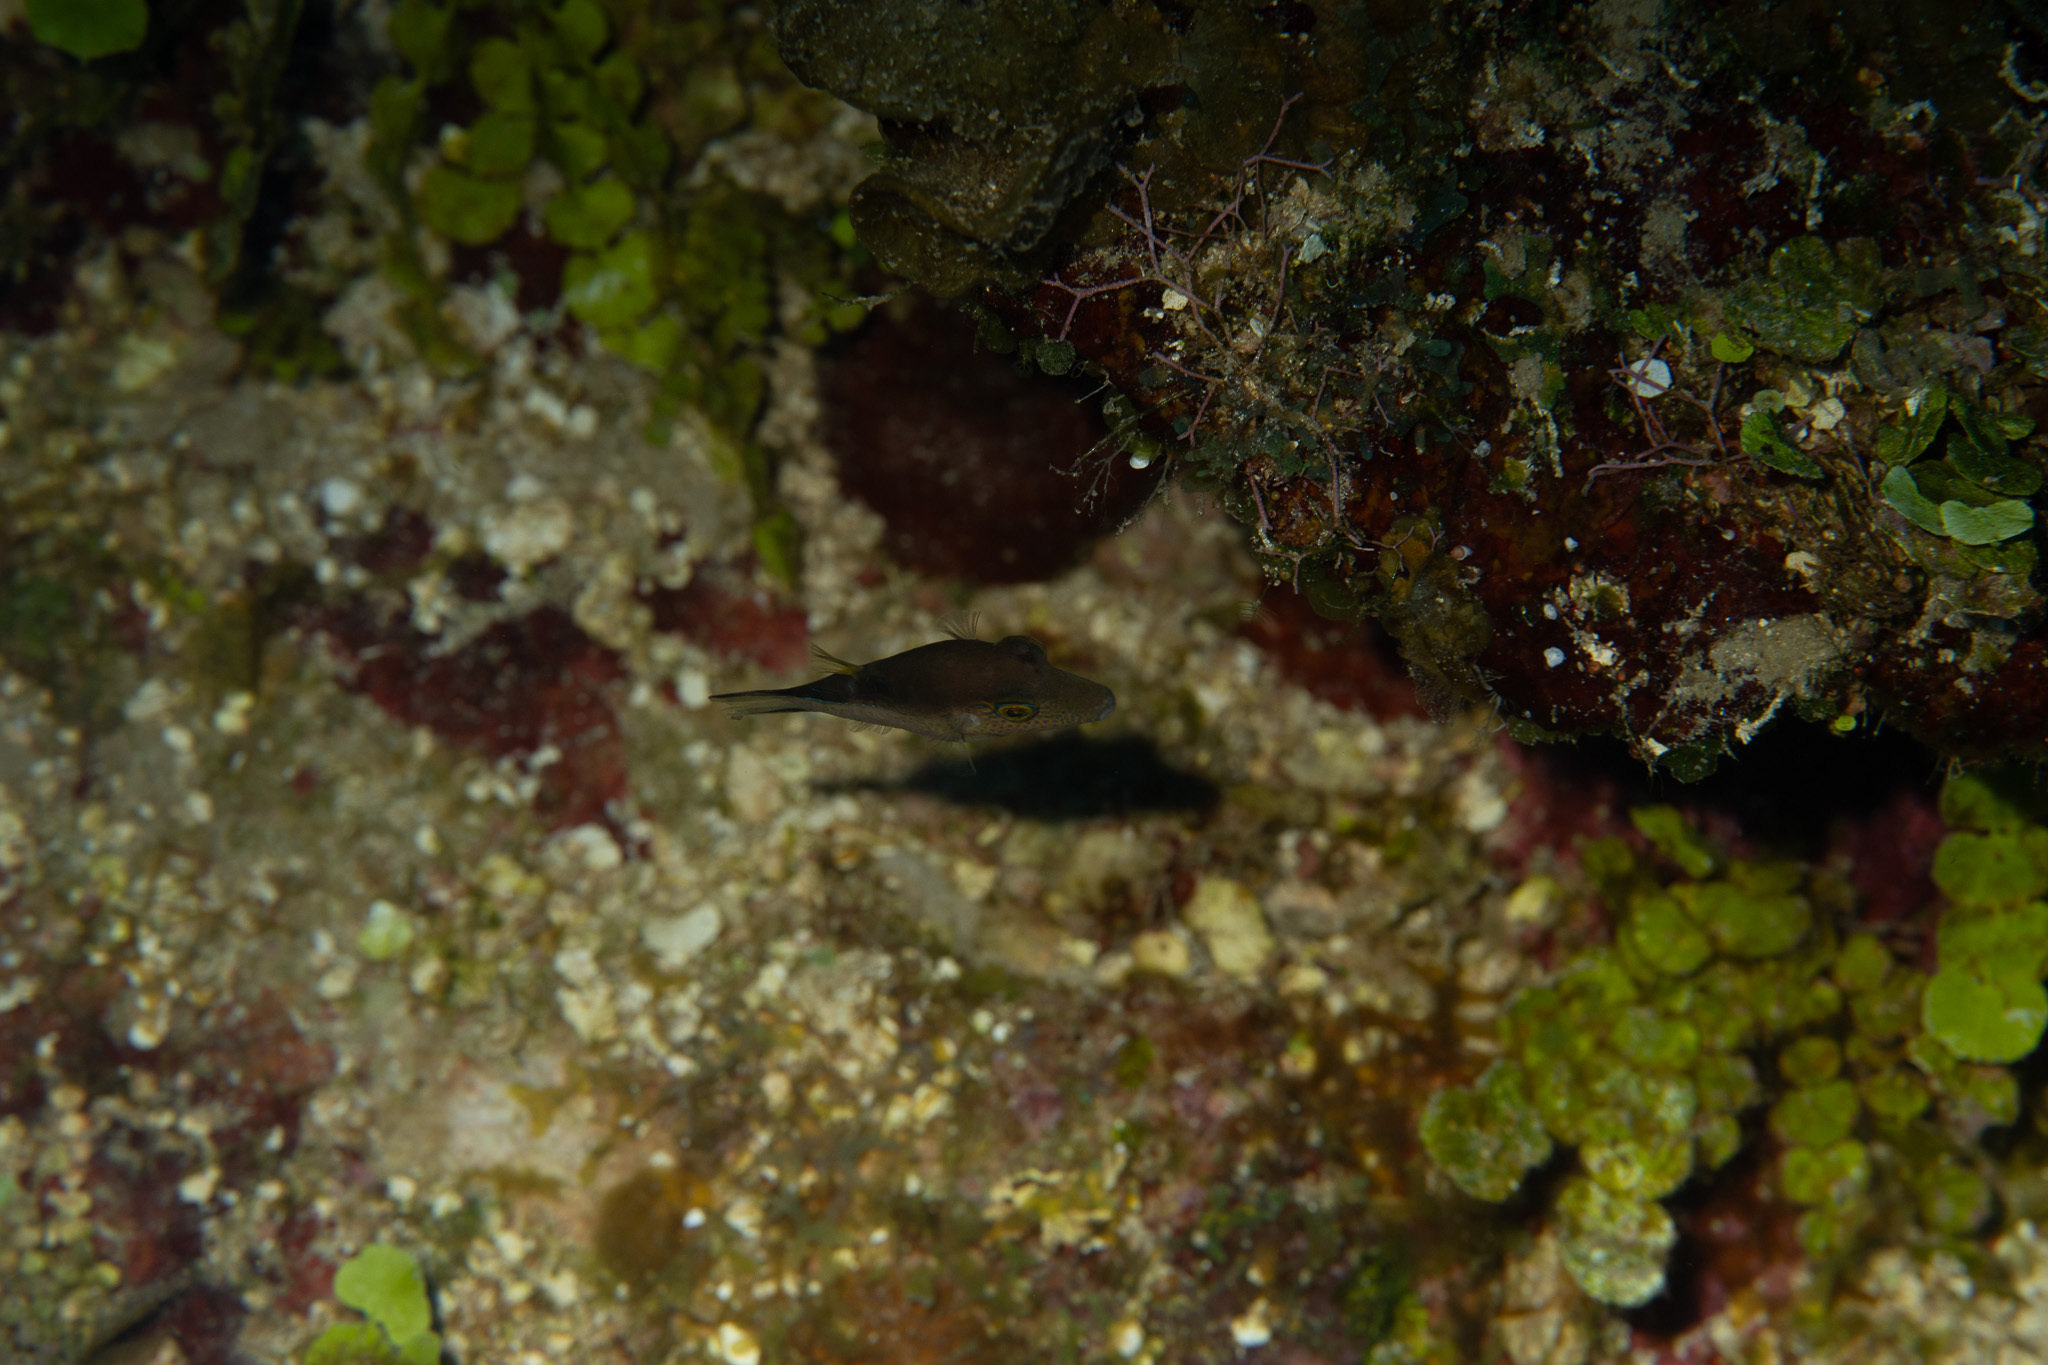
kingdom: Animalia
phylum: Chordata
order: Tetraodontiformes
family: Tetraodontidae
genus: Canthigaster
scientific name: Canthigaster rostrata
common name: Caribbean sharpnose-puffer
